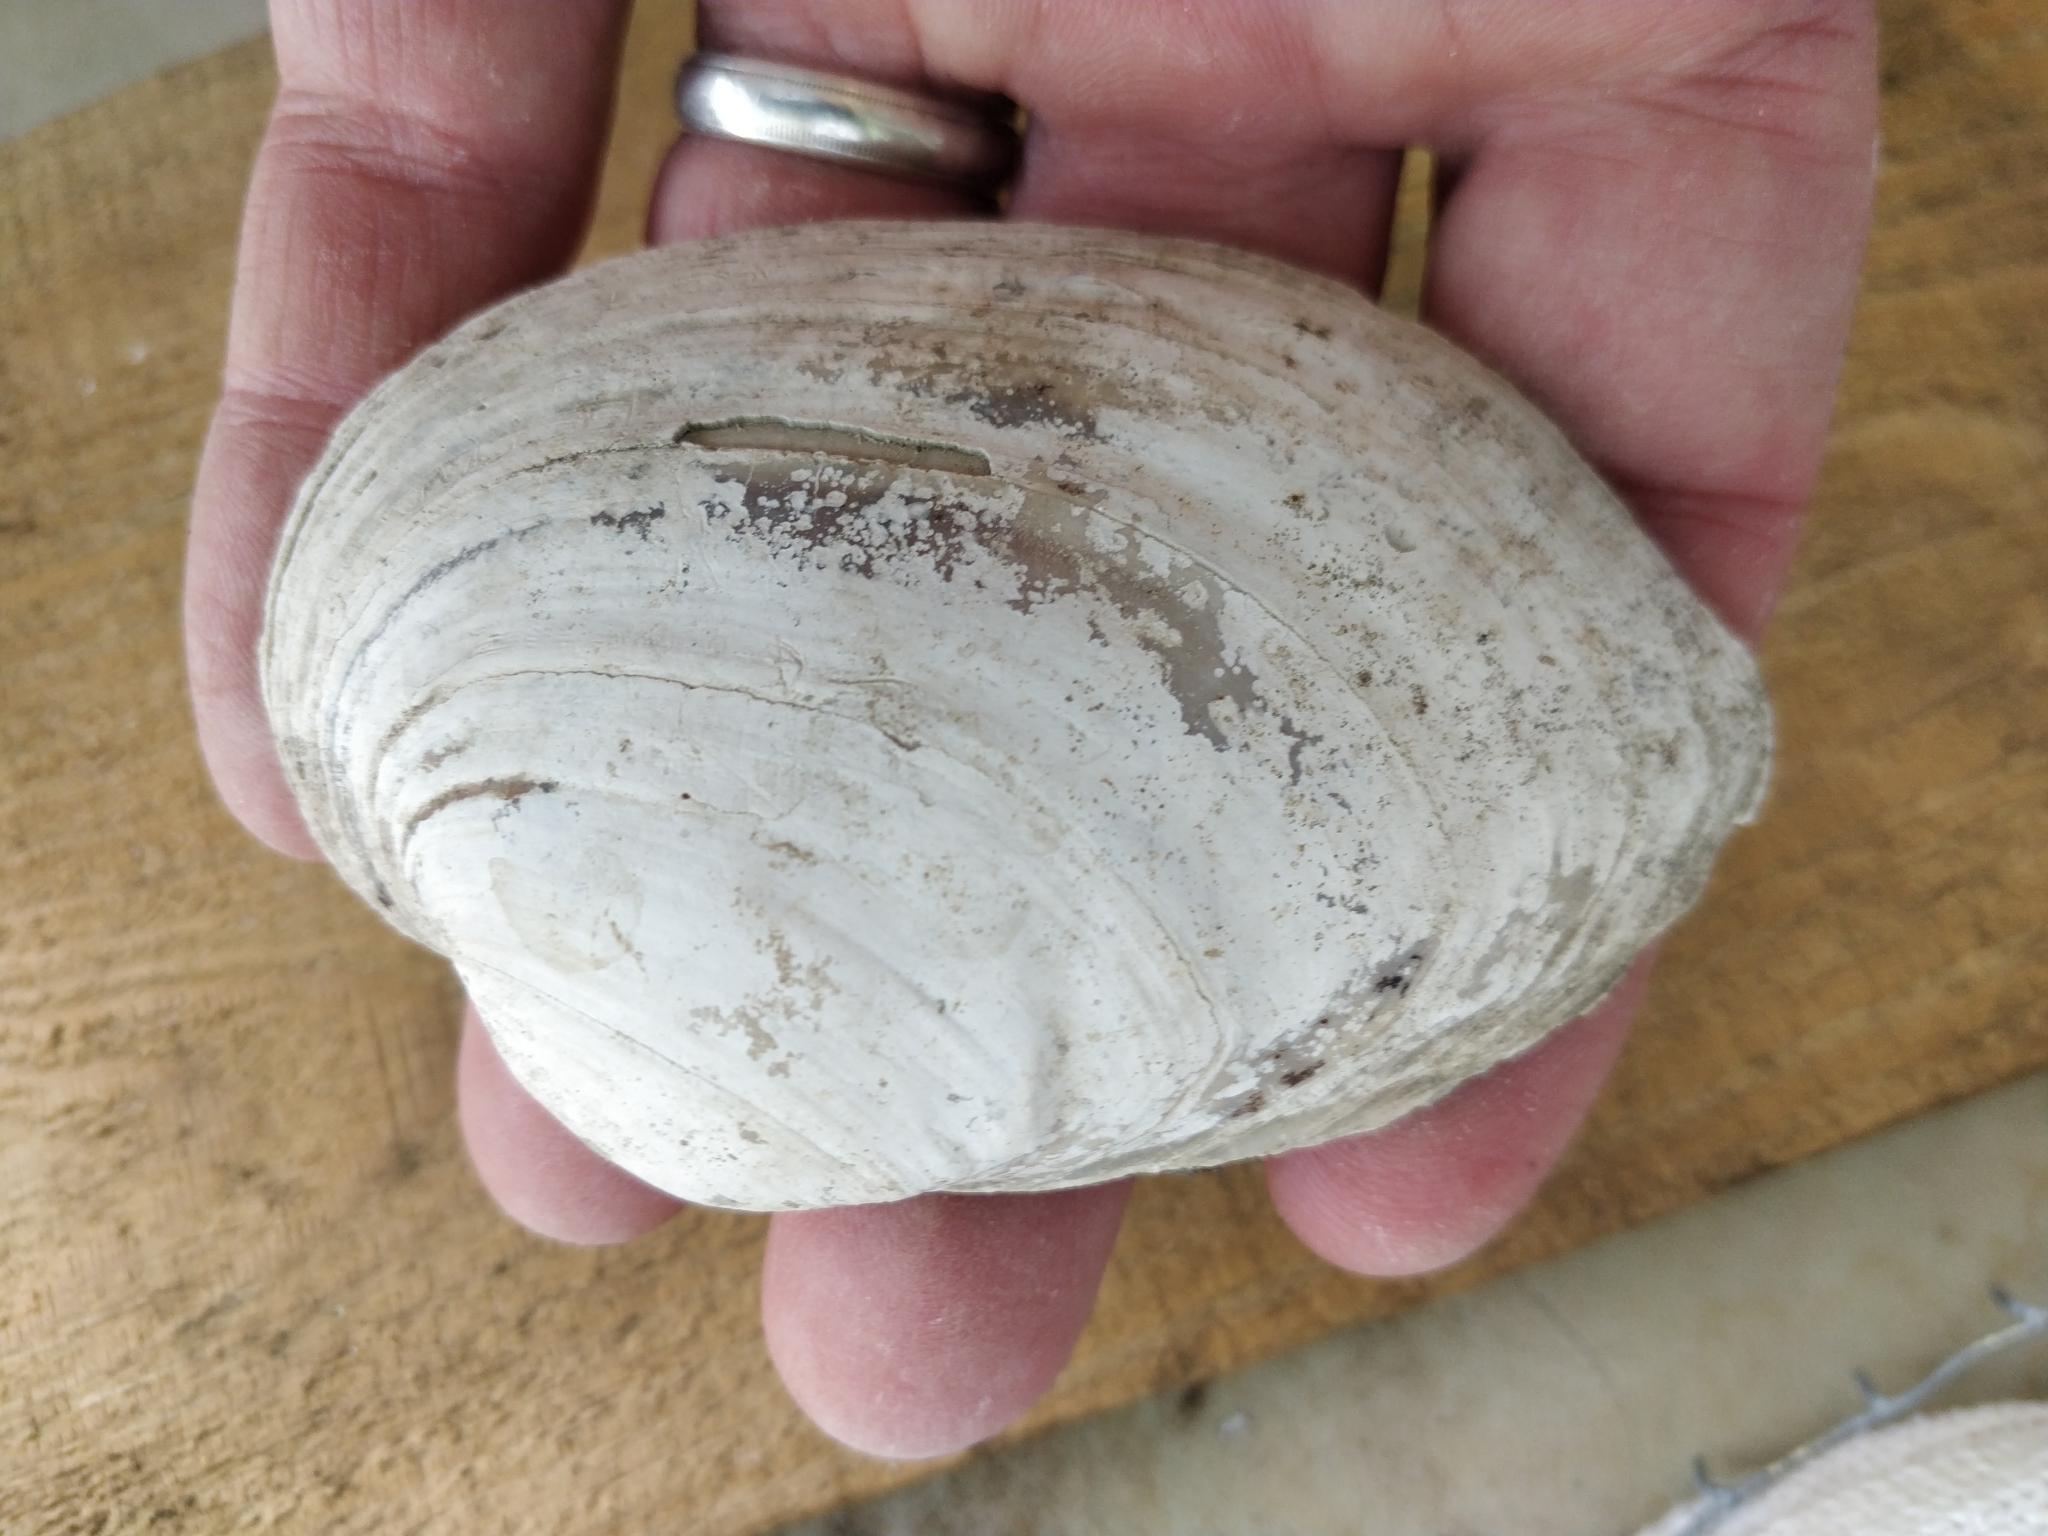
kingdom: Animalia
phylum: Mollusca
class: Bivalvia
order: Unionida
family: Unionidae
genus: Lampsilis
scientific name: Lampsilis cardium
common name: Plain pocketbook
